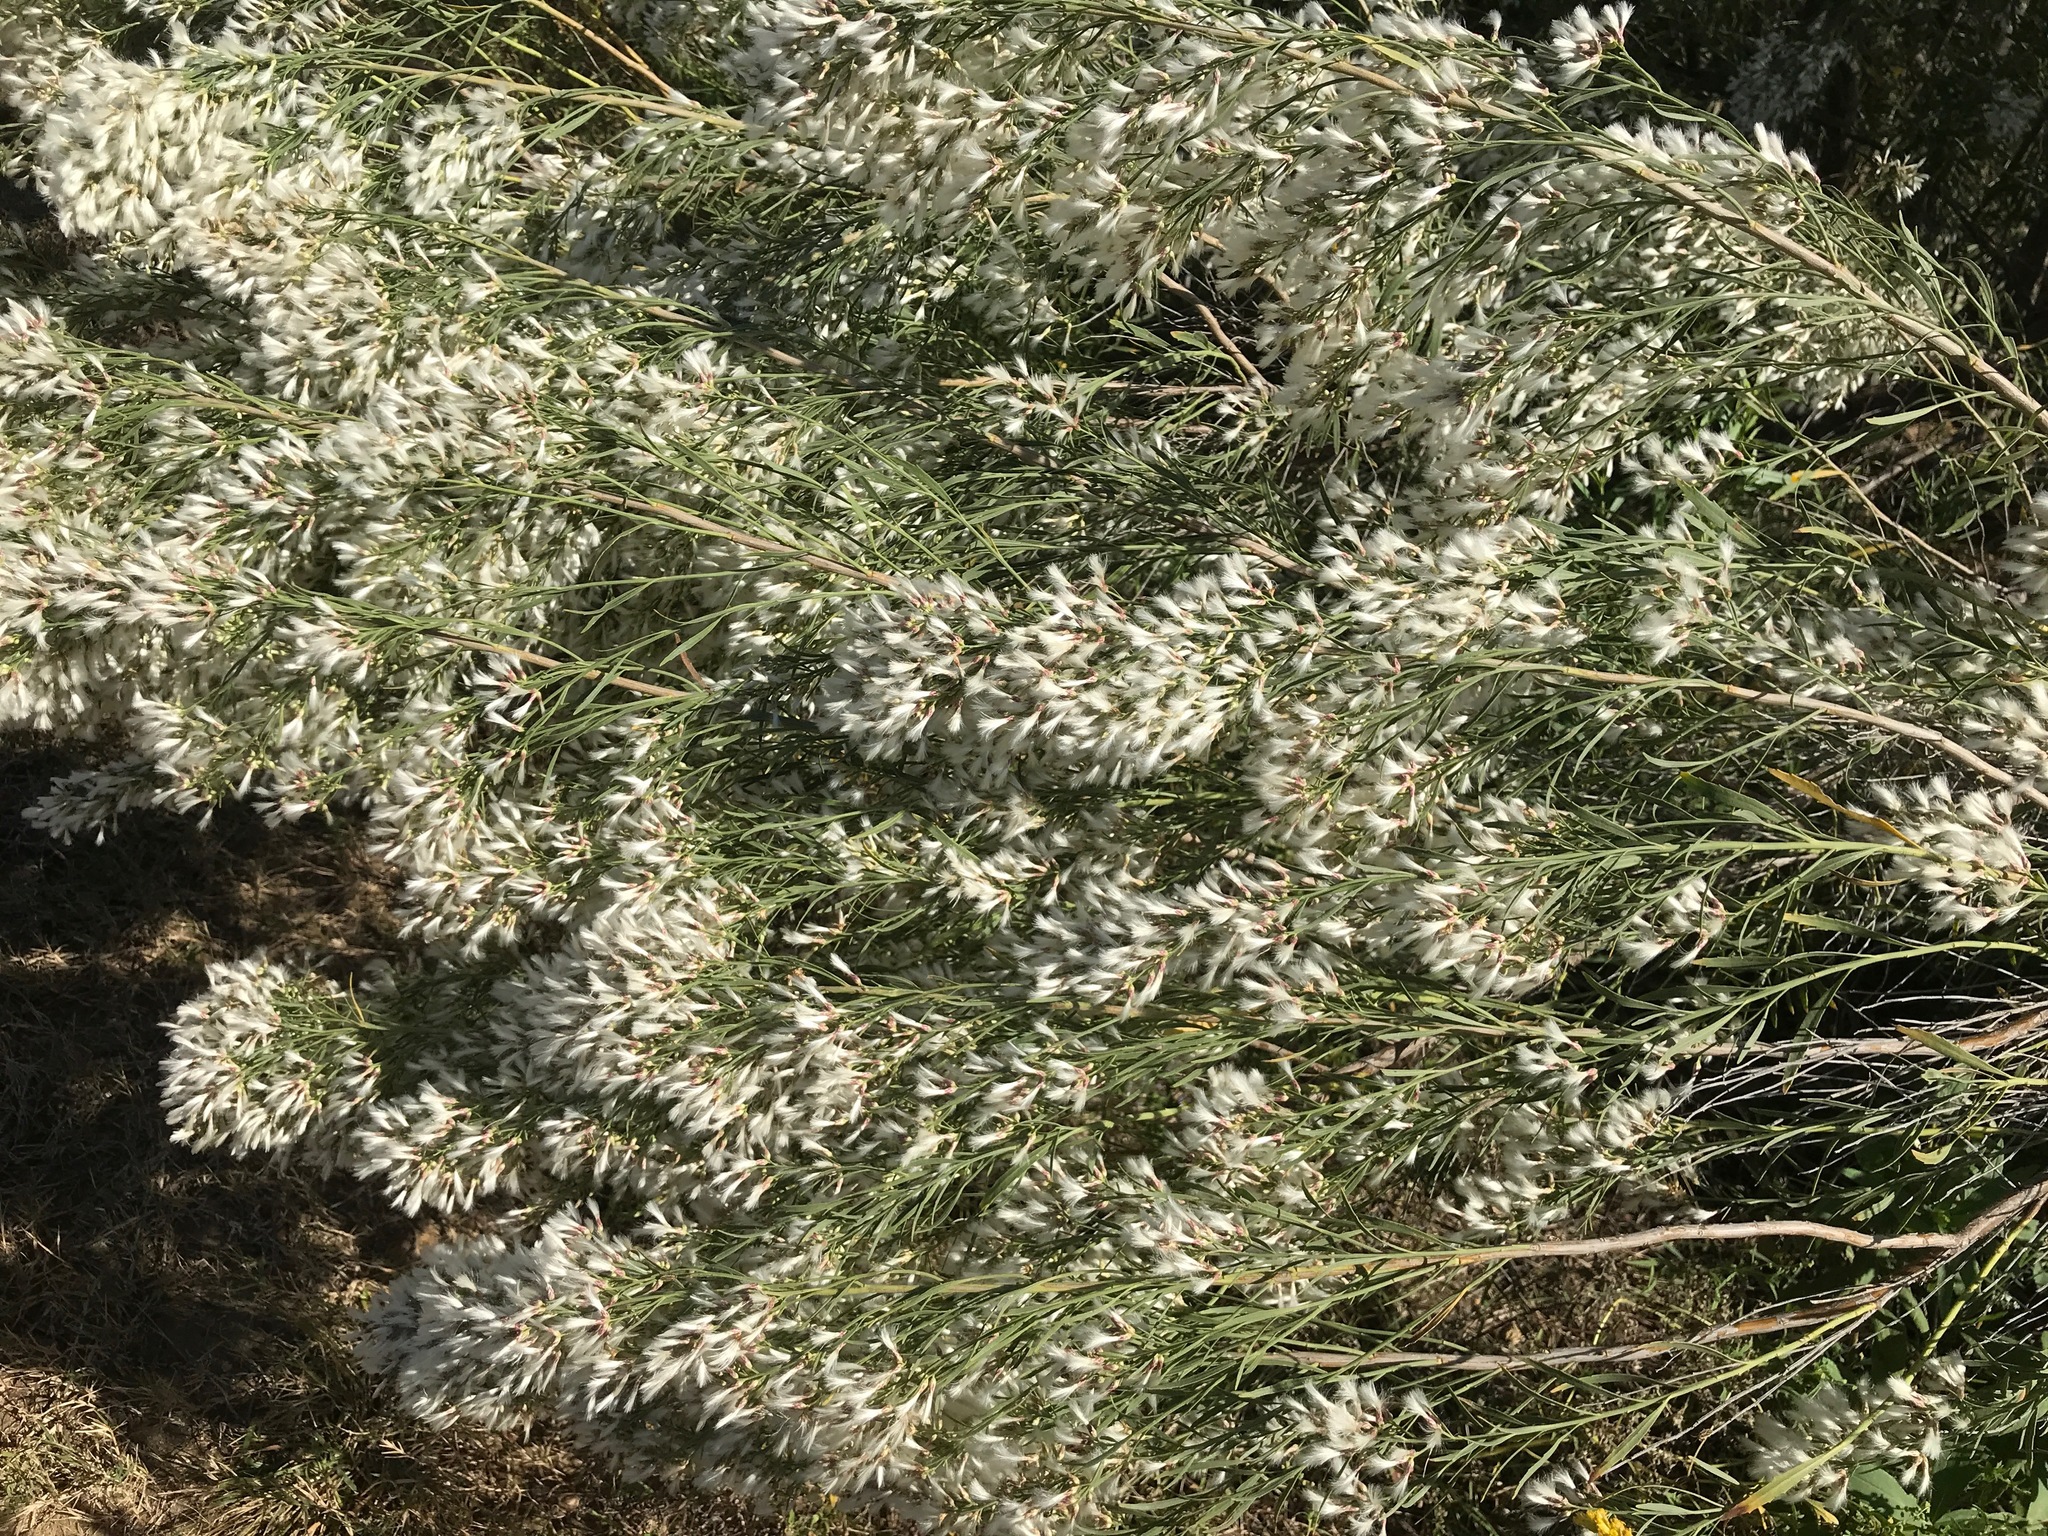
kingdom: Plantae
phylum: Tracheophyta
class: Magnoliopsida
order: Asterales
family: Asteraceae
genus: Baccharis
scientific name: Baccharis neglecta
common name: Roosevelt-weed
